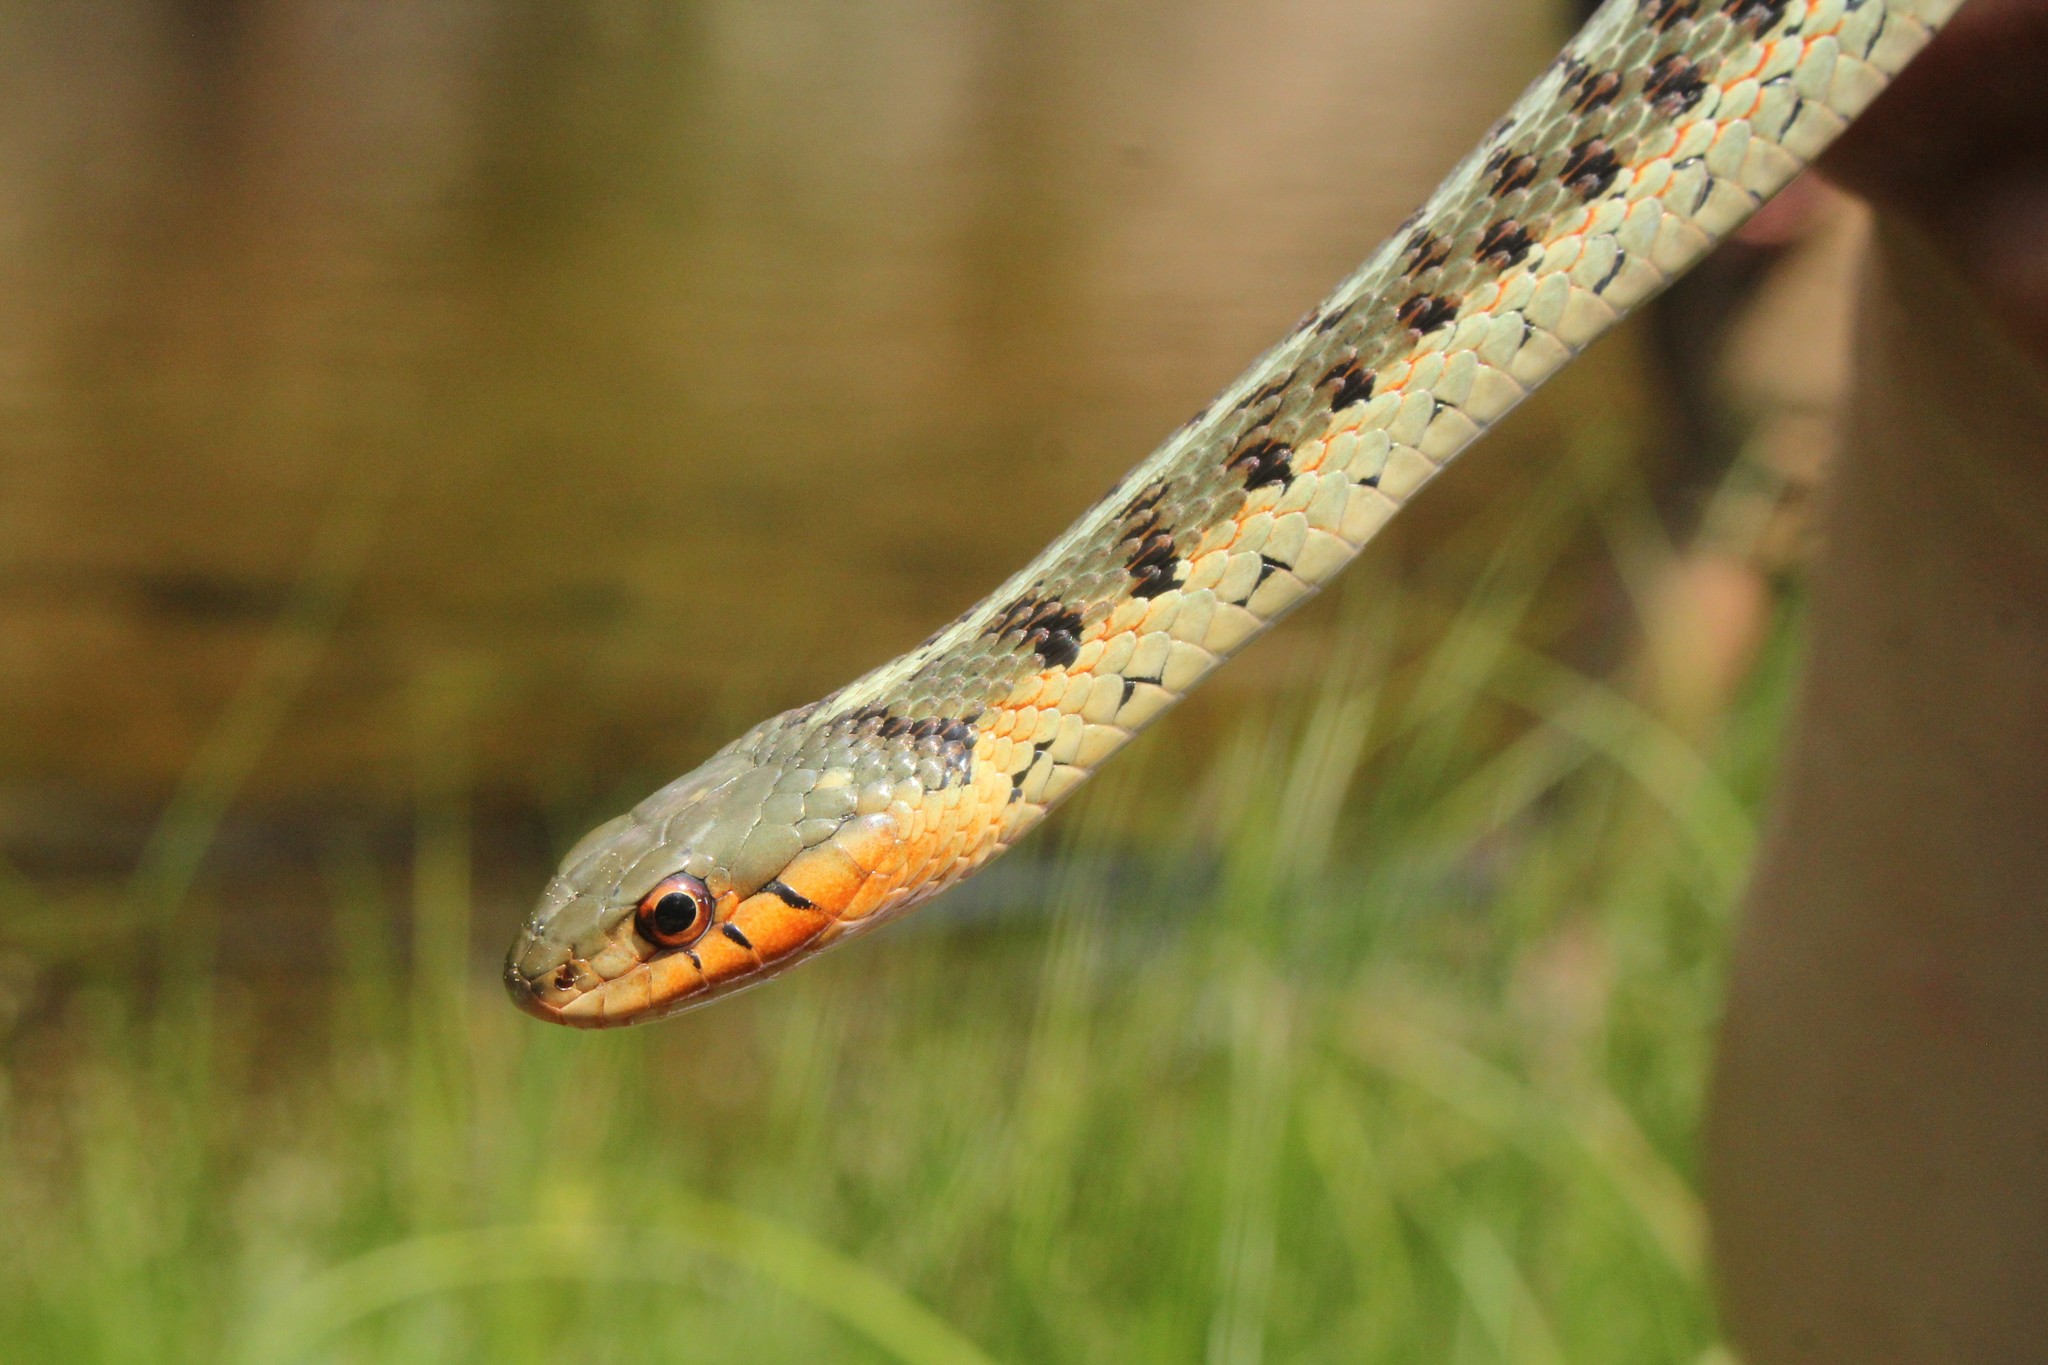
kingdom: Animalia
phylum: Chordata
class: Squamata
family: Colubridae
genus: Thamnophis
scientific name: Thamnophis sirtalis
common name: Common garter snake
